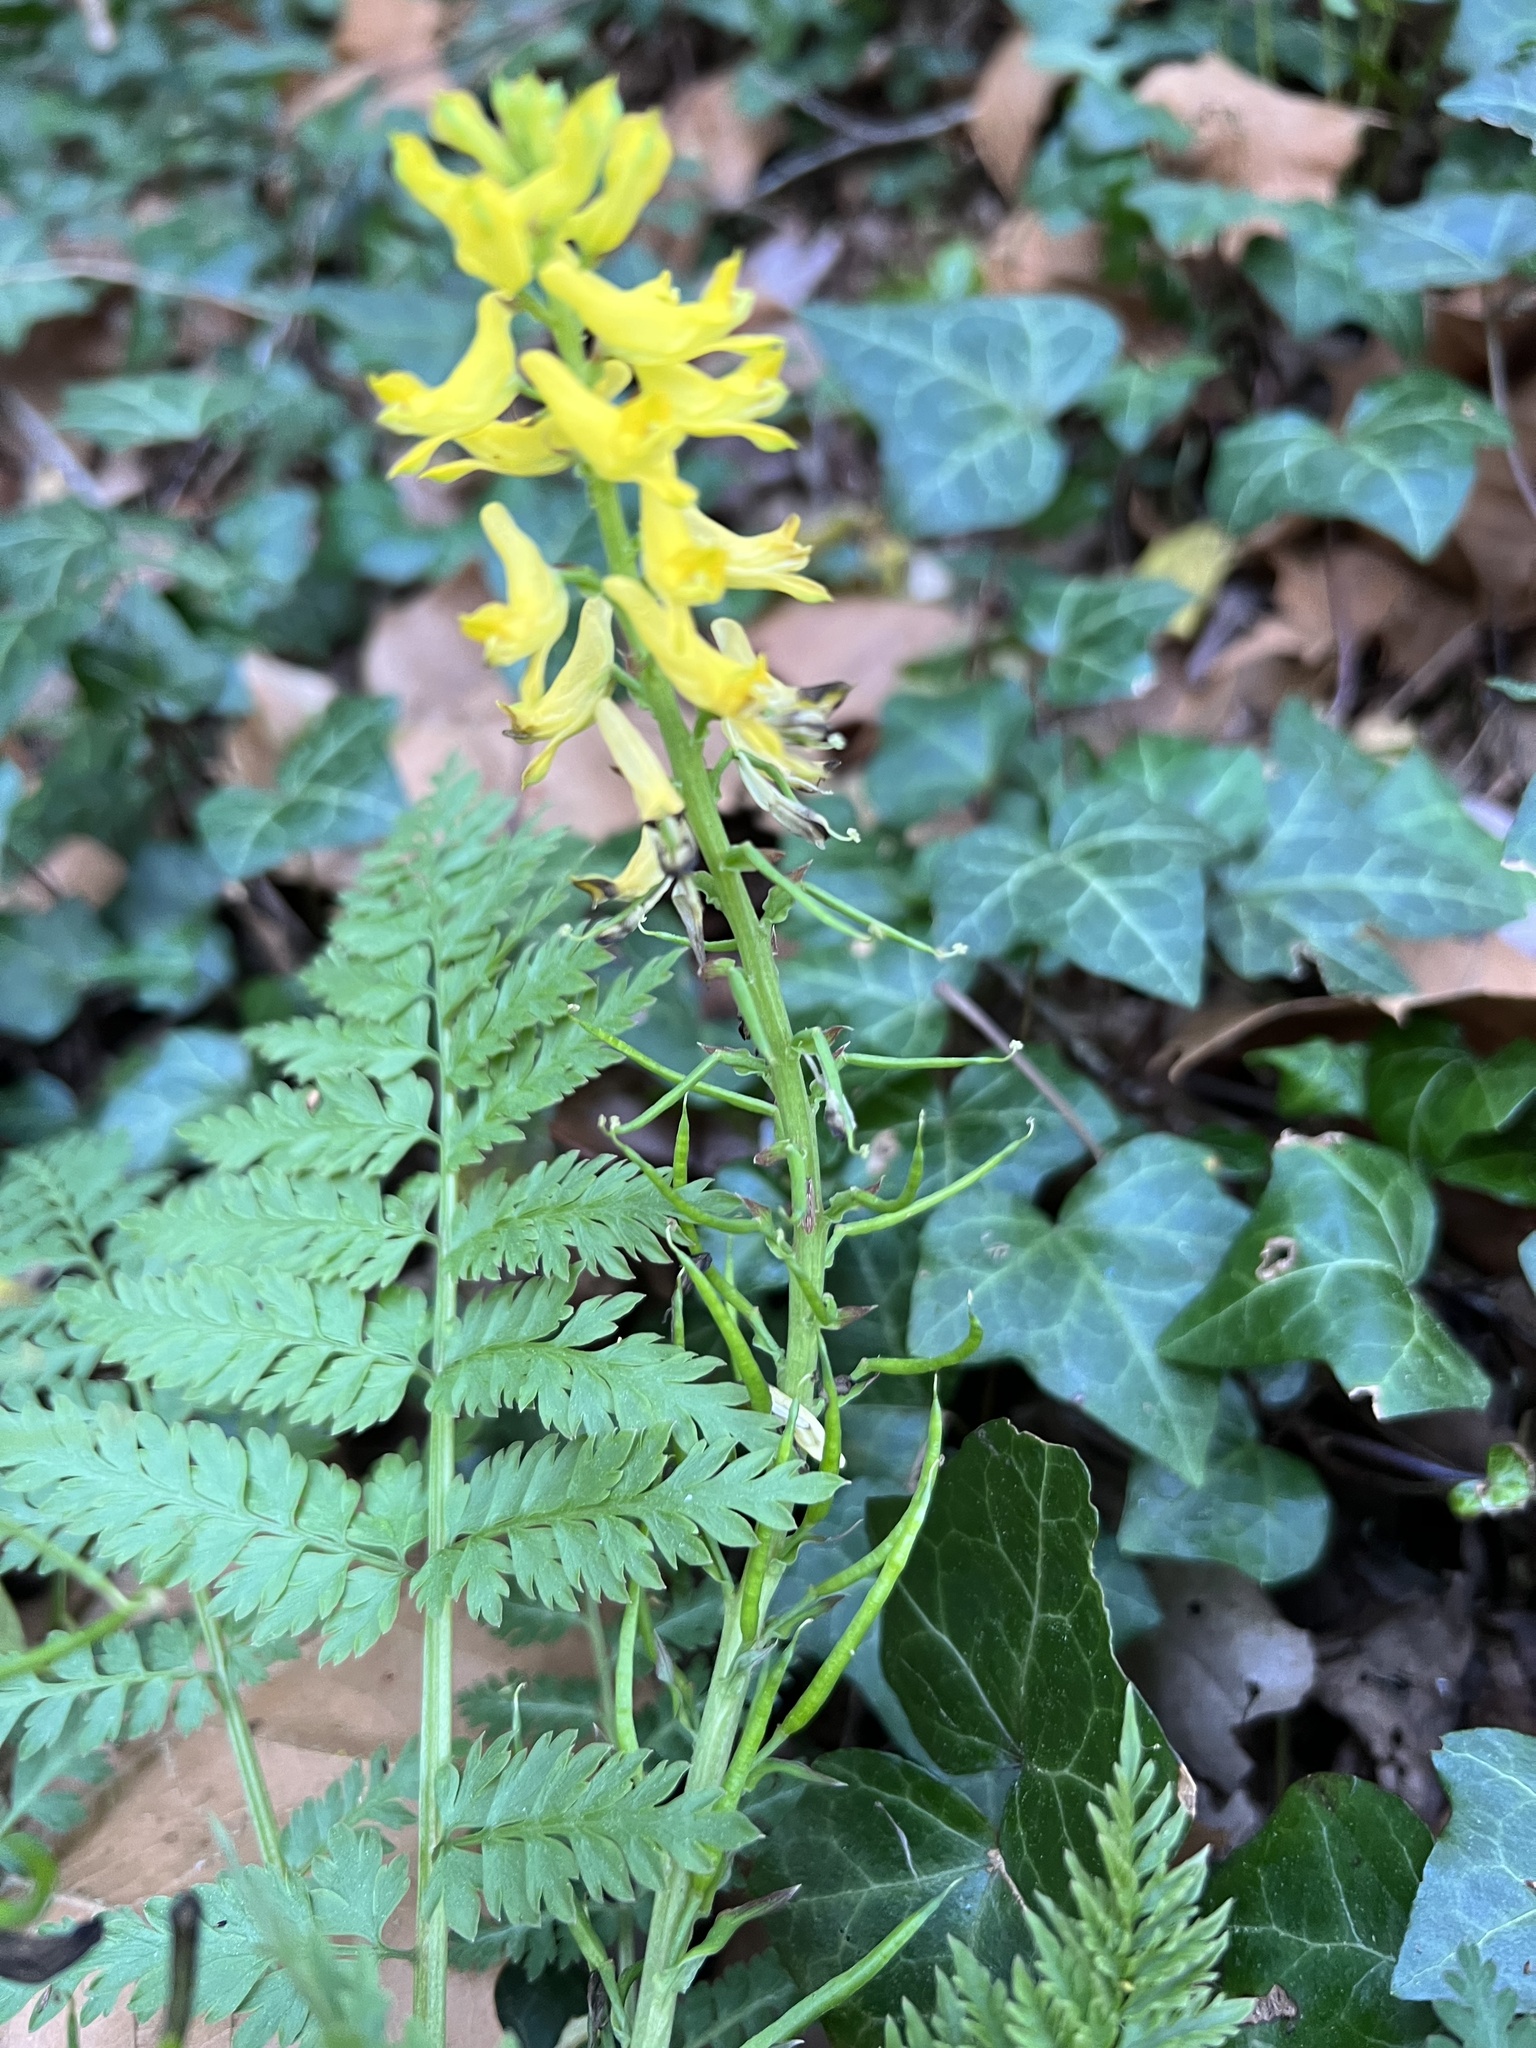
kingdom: Plantae
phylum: Tracheophyta
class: Magnoliopsida
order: Ranunculales
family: Papaveraceae
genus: Corydalis
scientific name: Corydalis cheilanthifolia
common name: Fern-leaved corydalis
